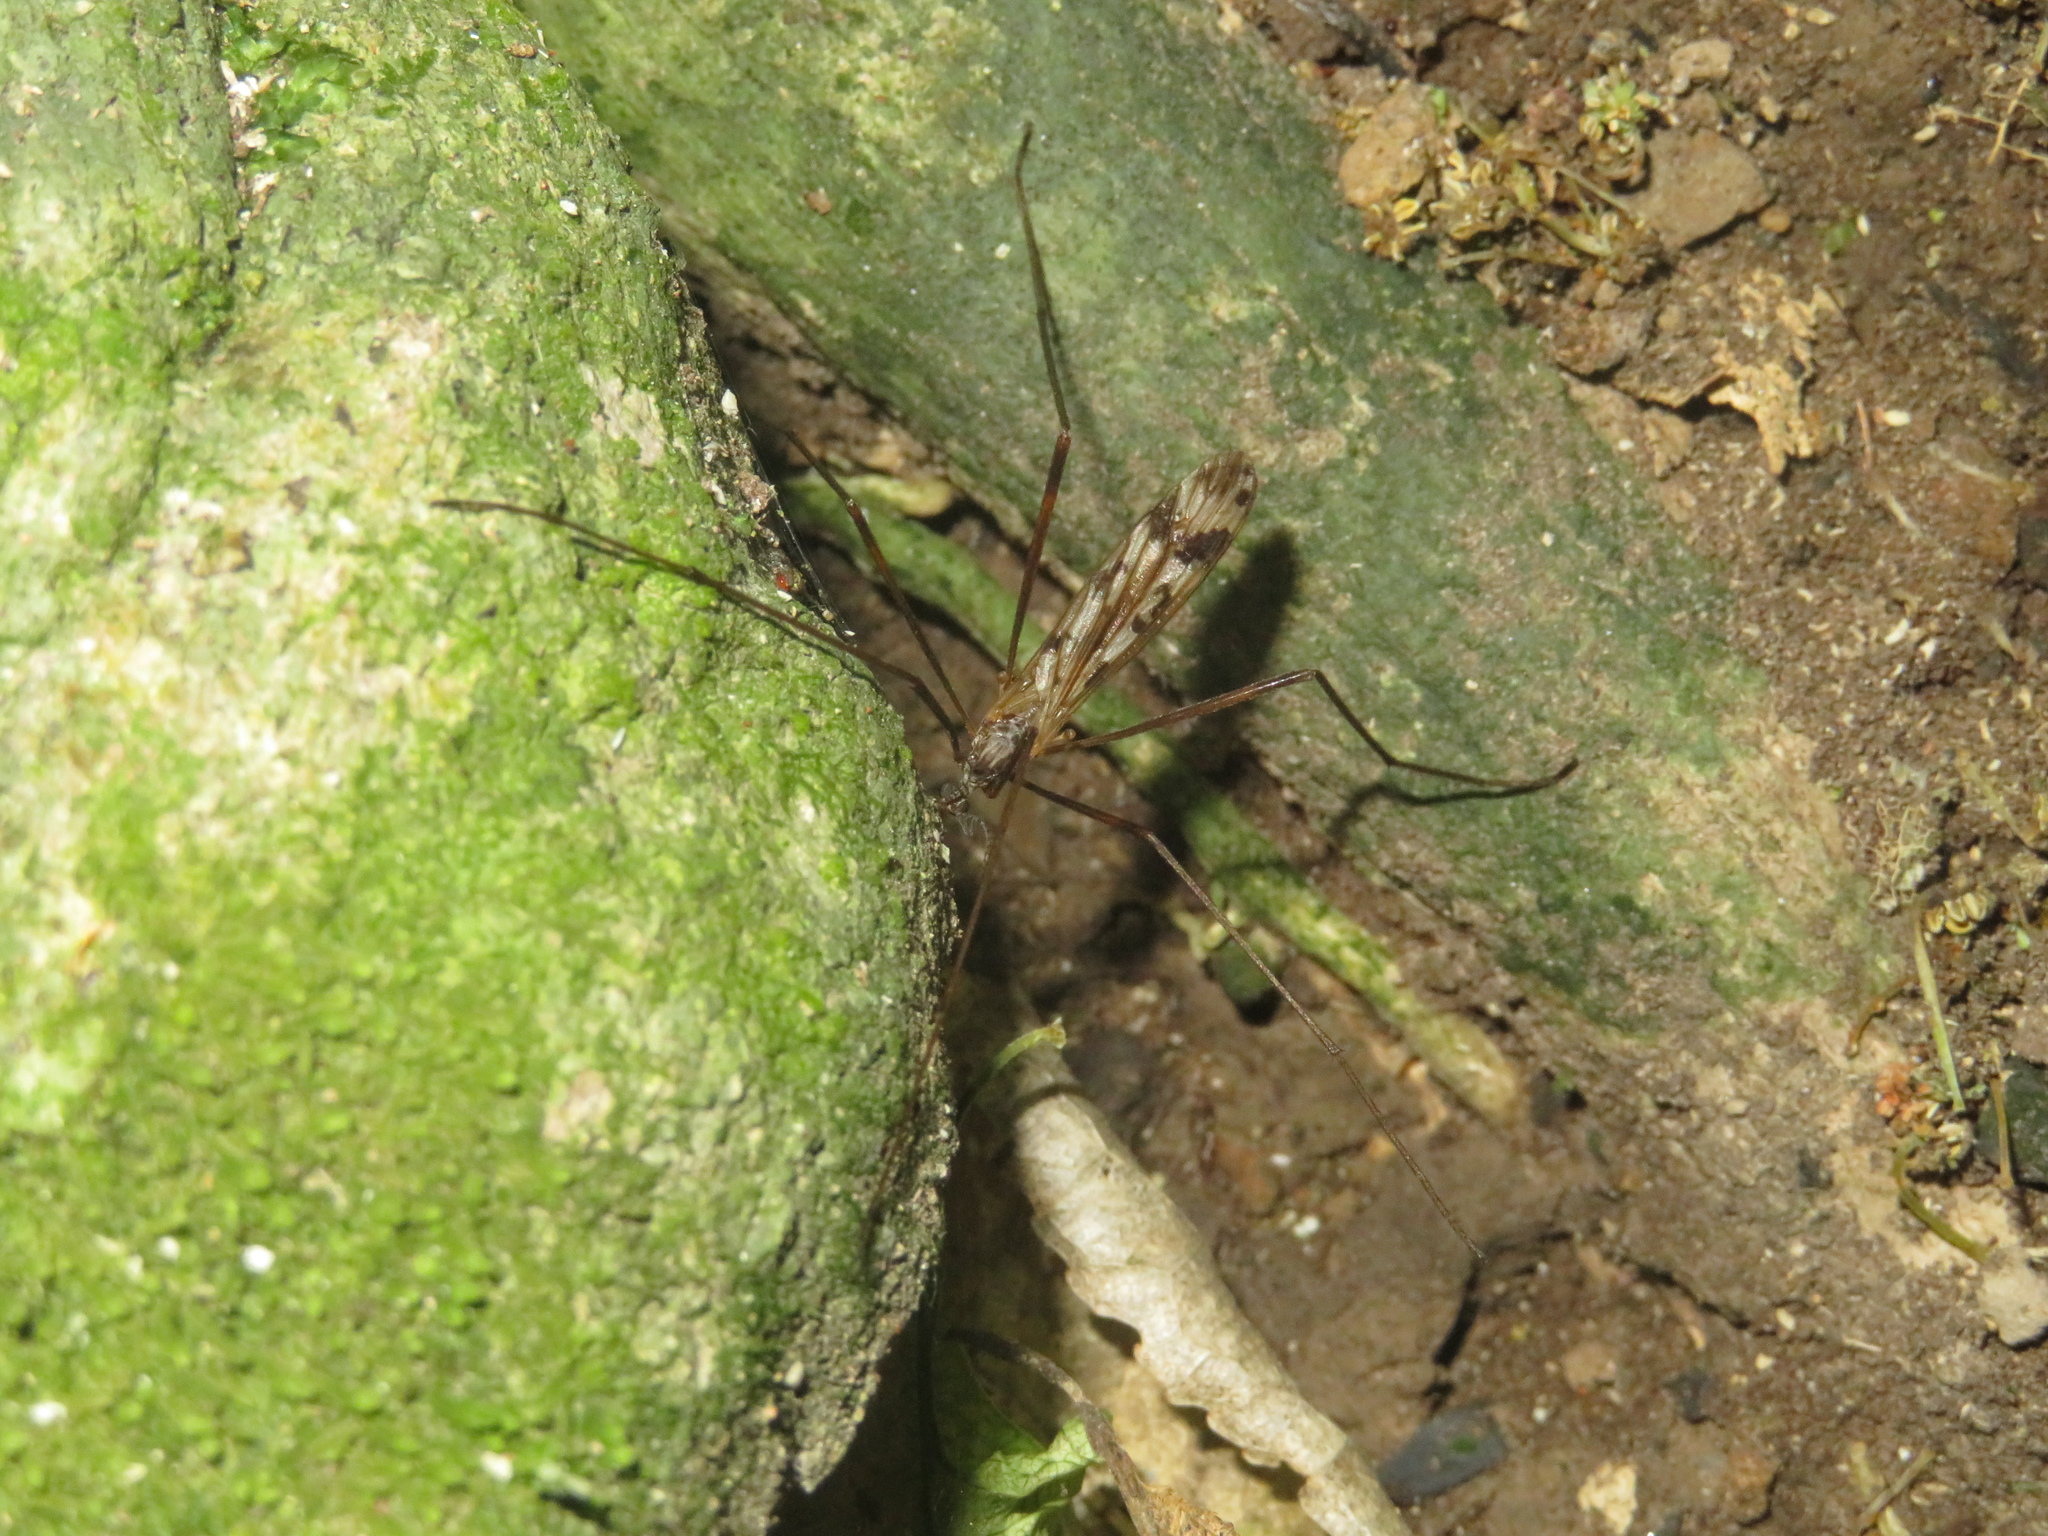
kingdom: Animalia
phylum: Arthropoda
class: Insecta
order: Diptera
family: Limoniidae
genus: Gynoplistia
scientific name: Gynoplistia magnifica
